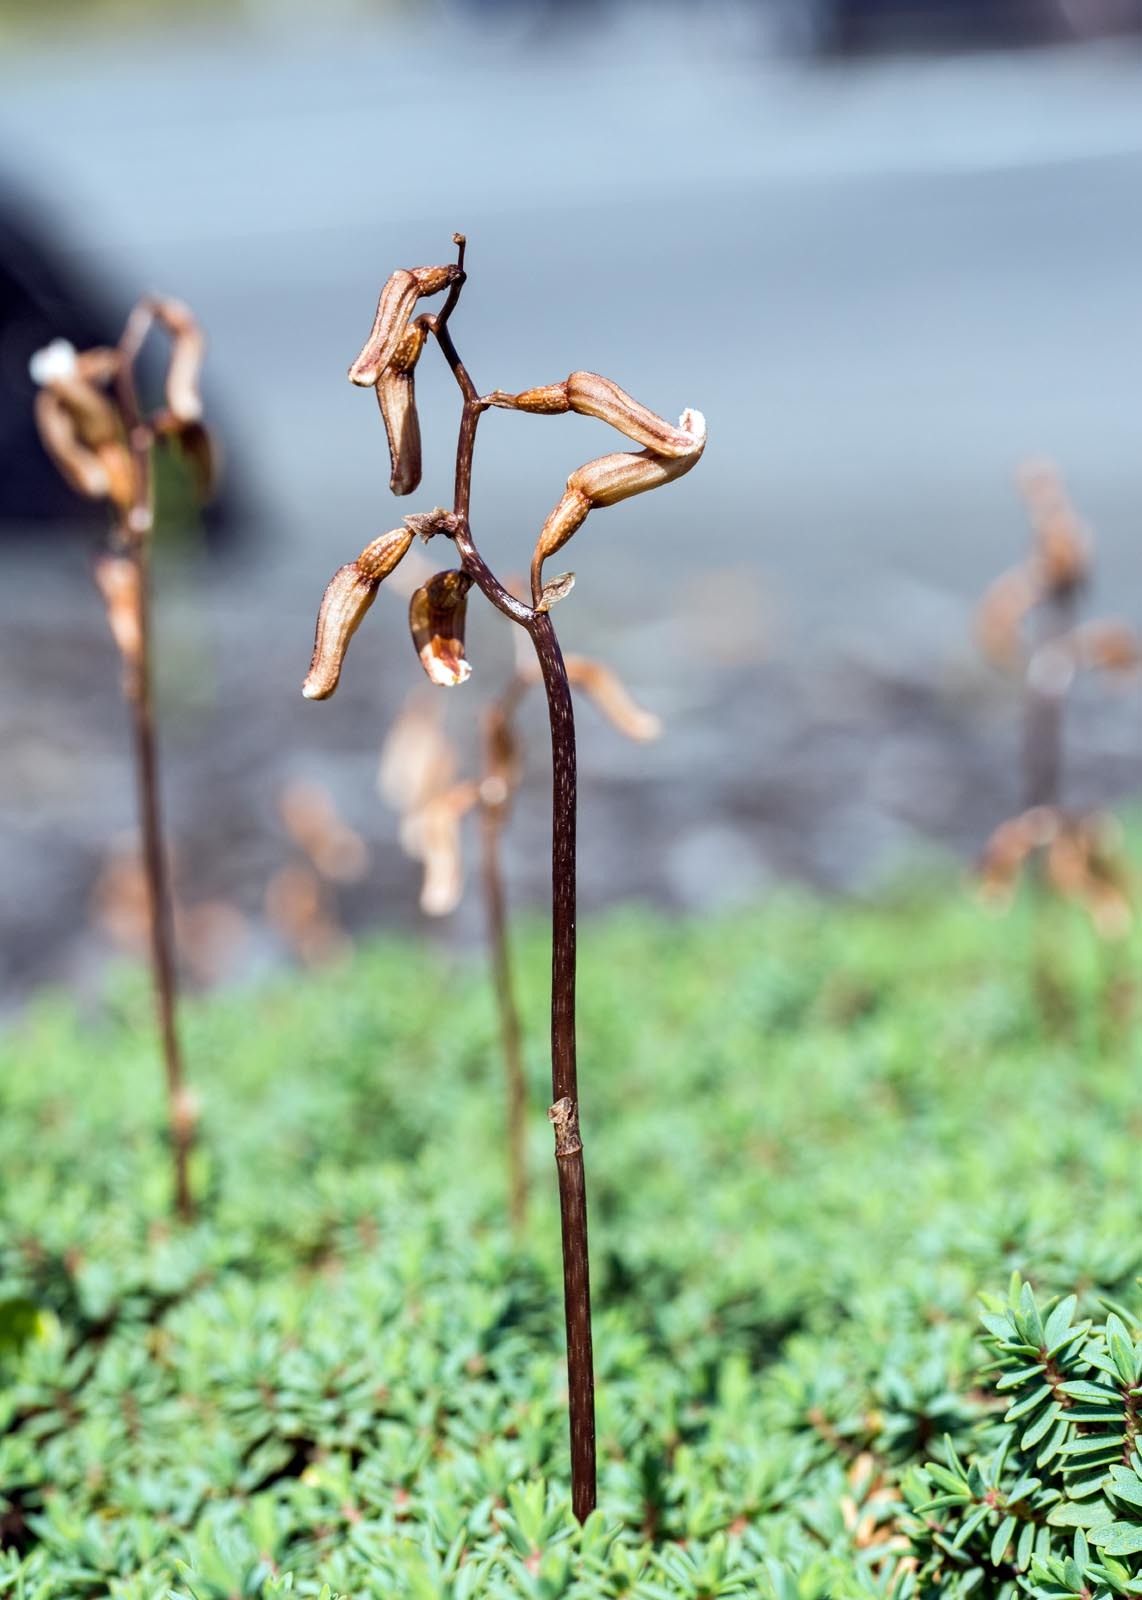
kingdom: Plantae
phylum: Tracheophyta
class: Liliopsida
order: Asparagales
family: Orchidaceae
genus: Gastrodia
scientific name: Gastrodia minor
